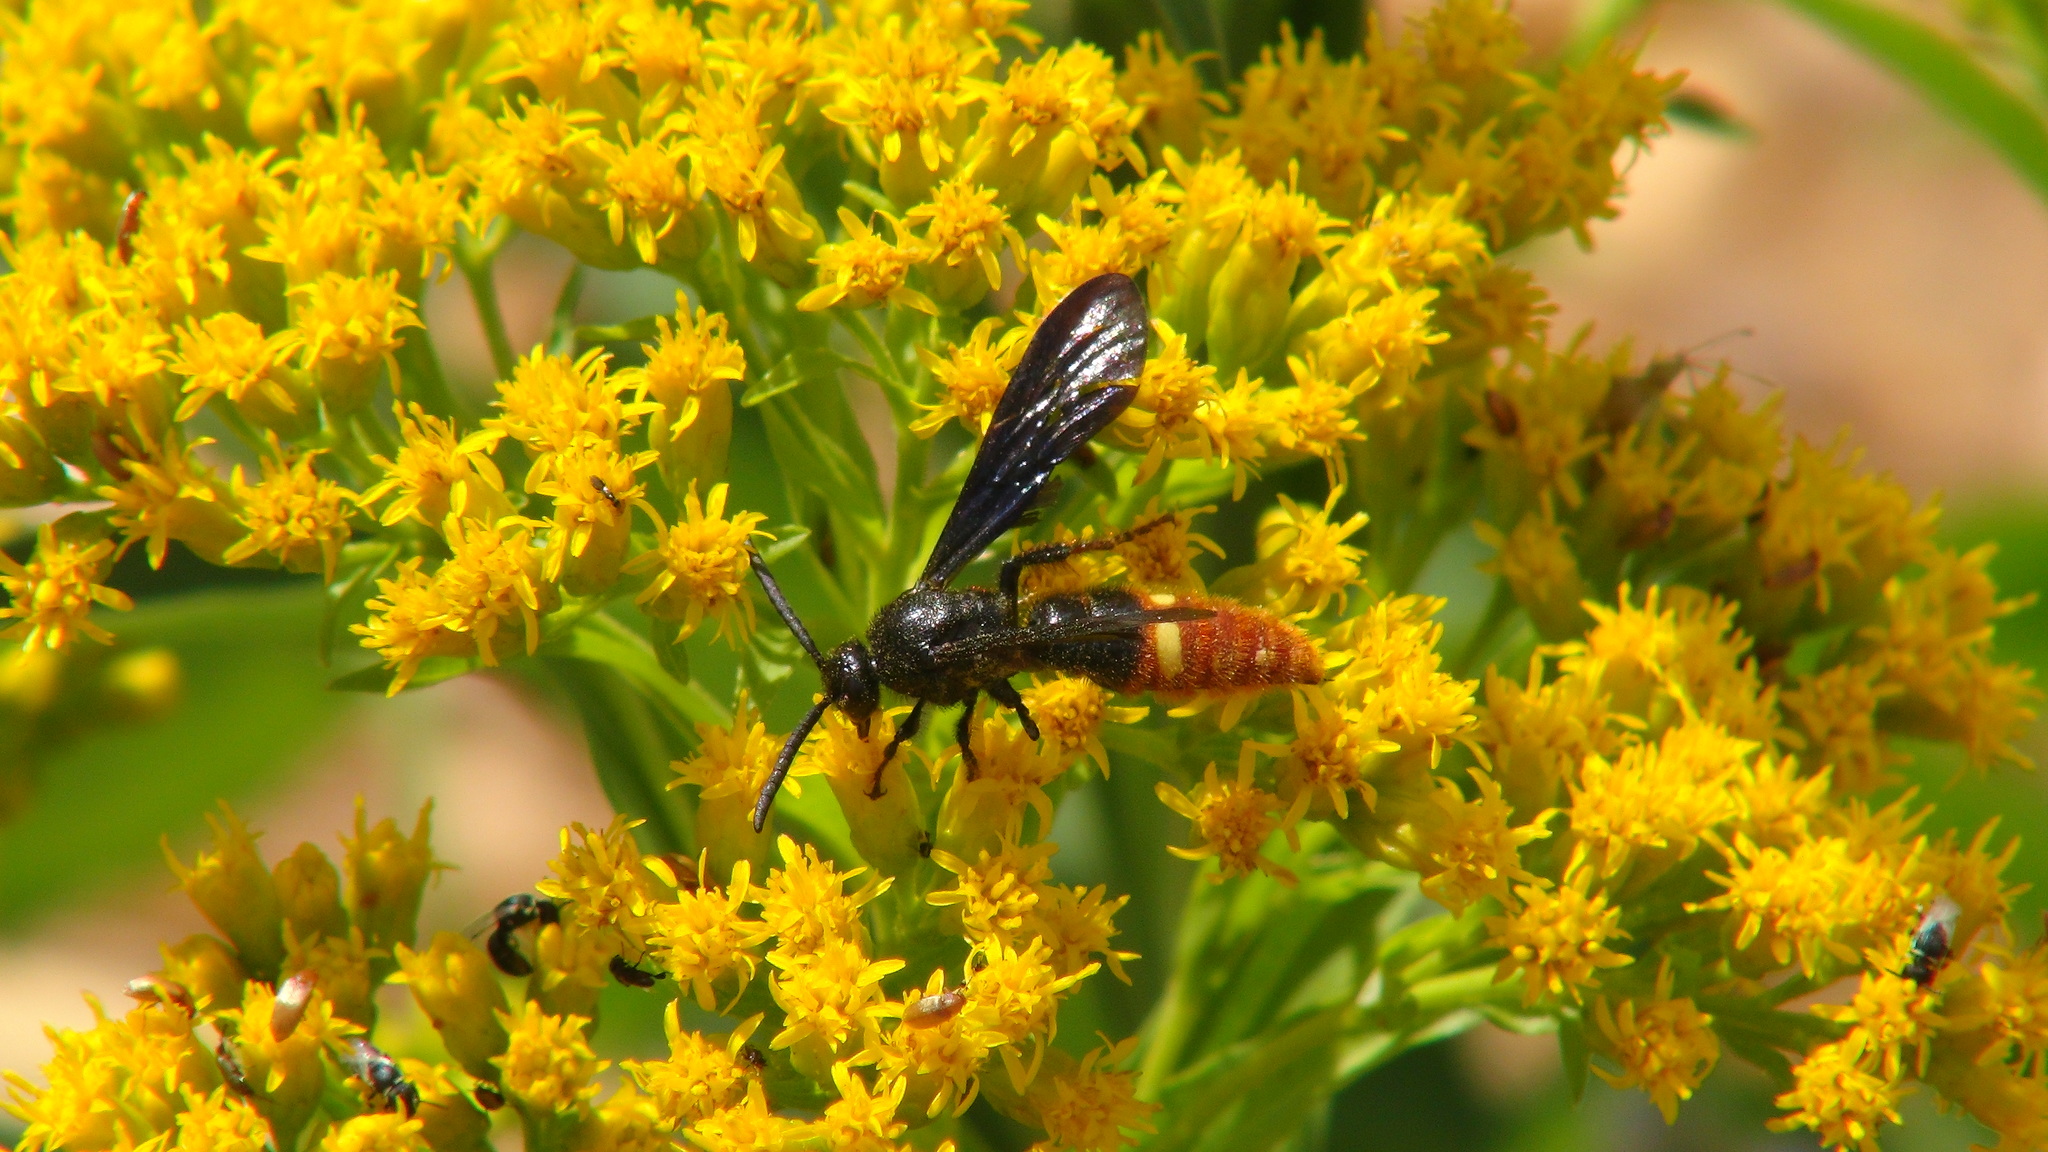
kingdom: Animalia
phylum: Arthropoda
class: Insecta
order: Hymenoptera
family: Scoliidae
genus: Scolia
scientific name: Scolia dubia
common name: Blue-winged scoliid wasp
